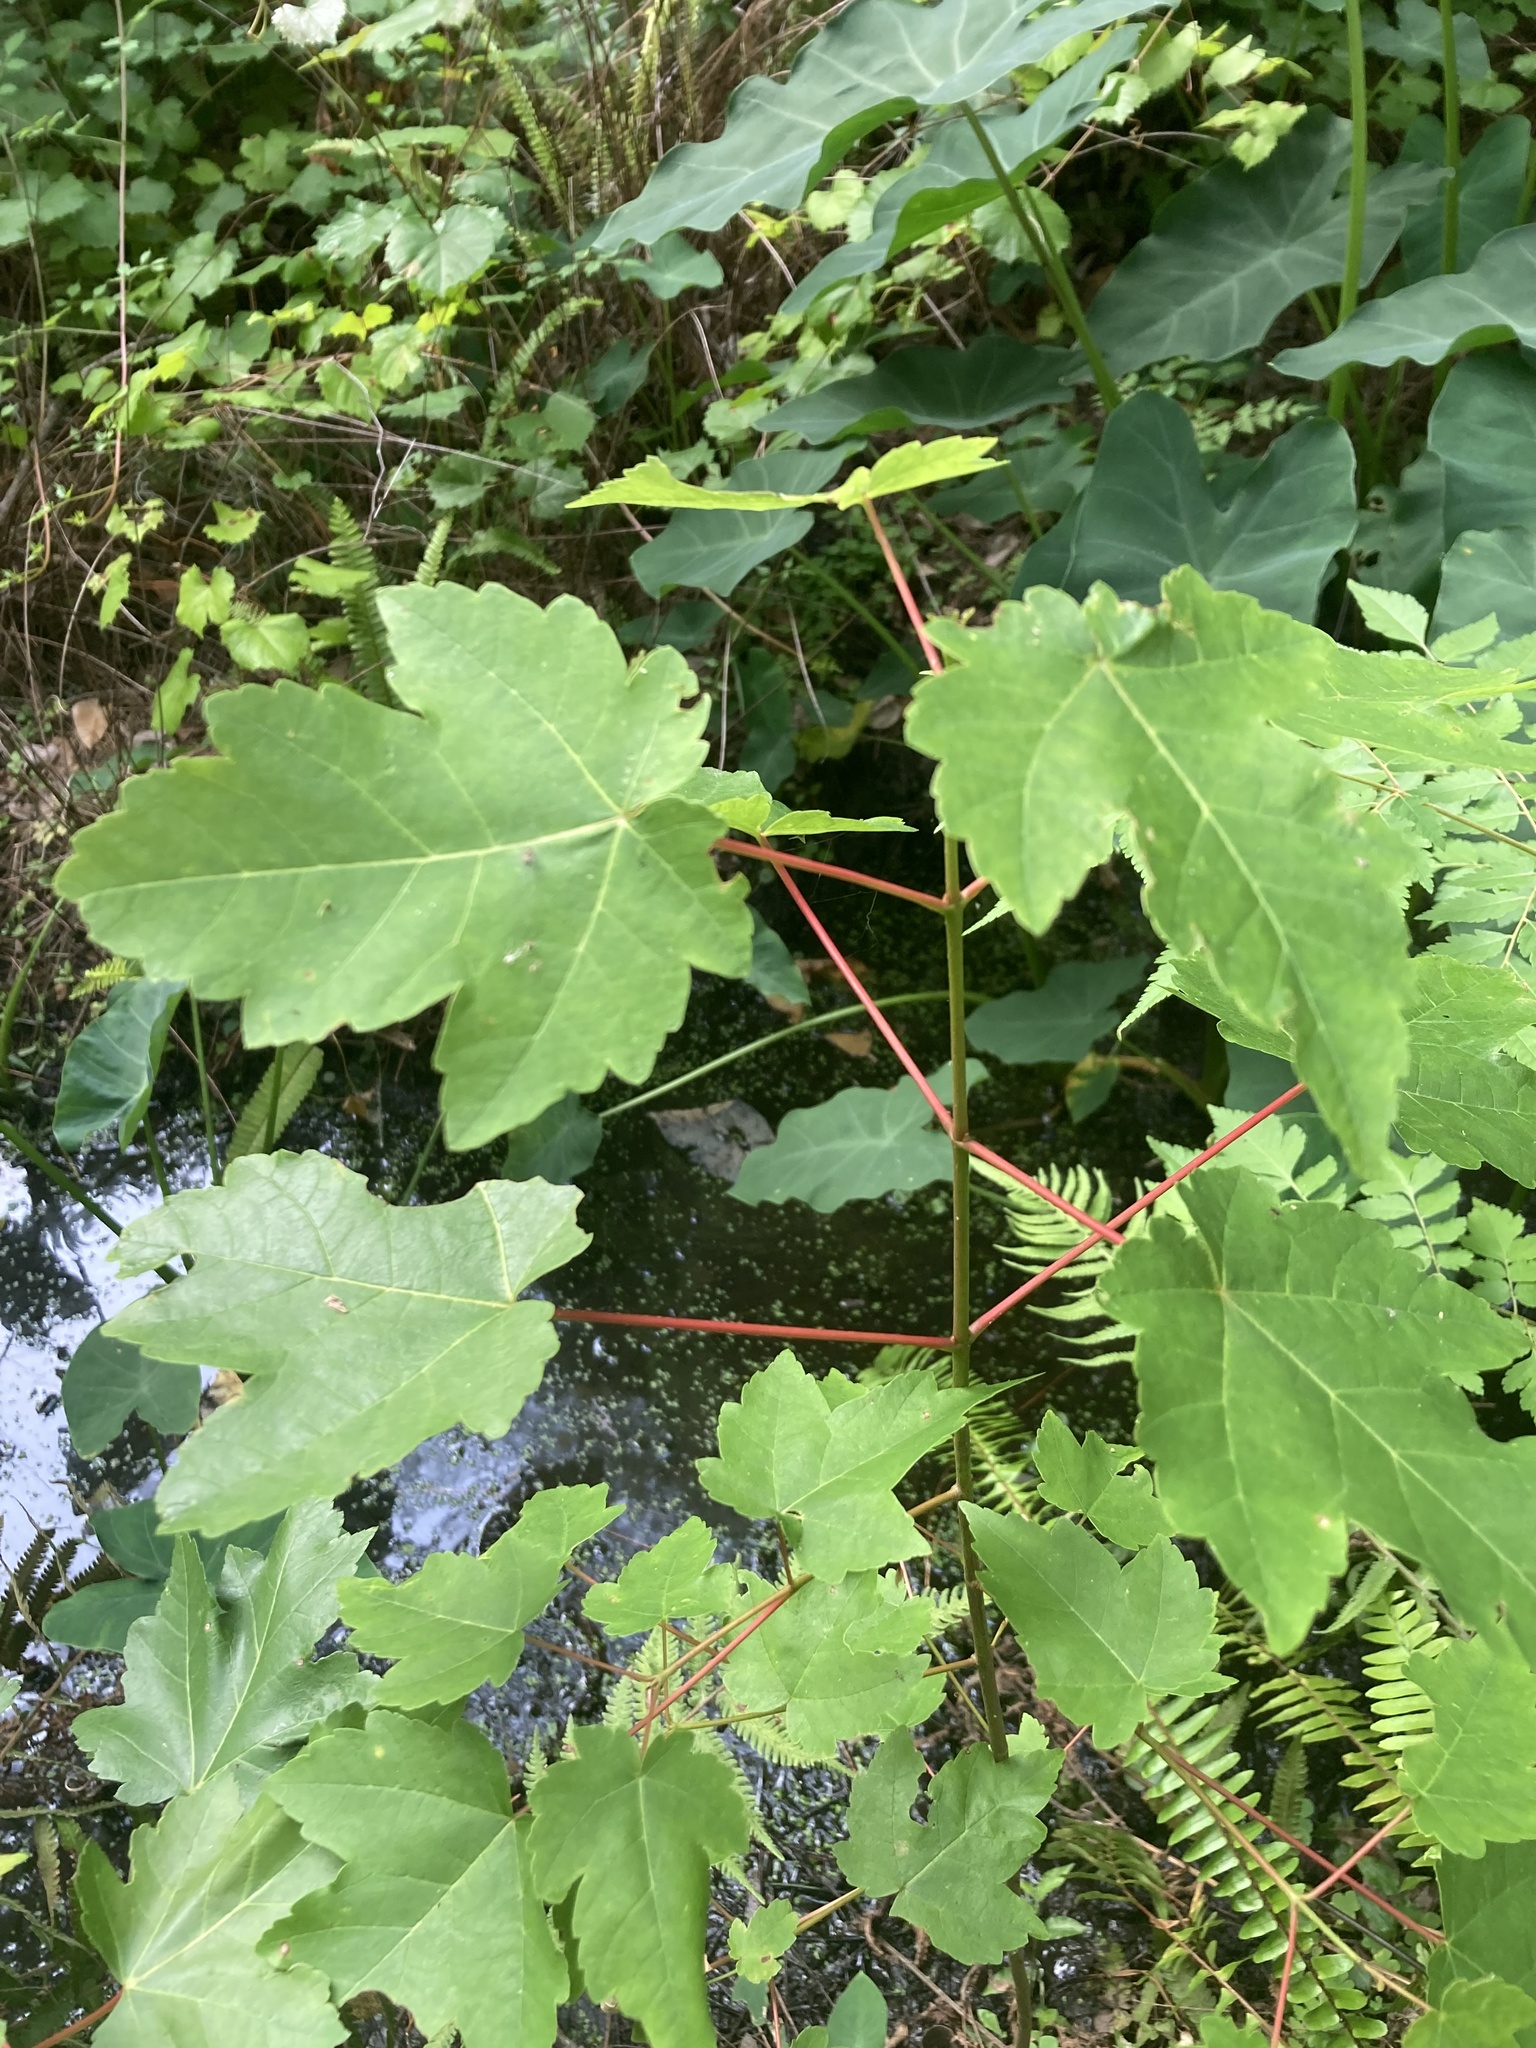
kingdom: Plantae
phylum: Tracheophyta
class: Magnoliopsida
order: Sapindales
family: Sapindaceae
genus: Acer
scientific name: Acer rubrum
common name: Red maple
